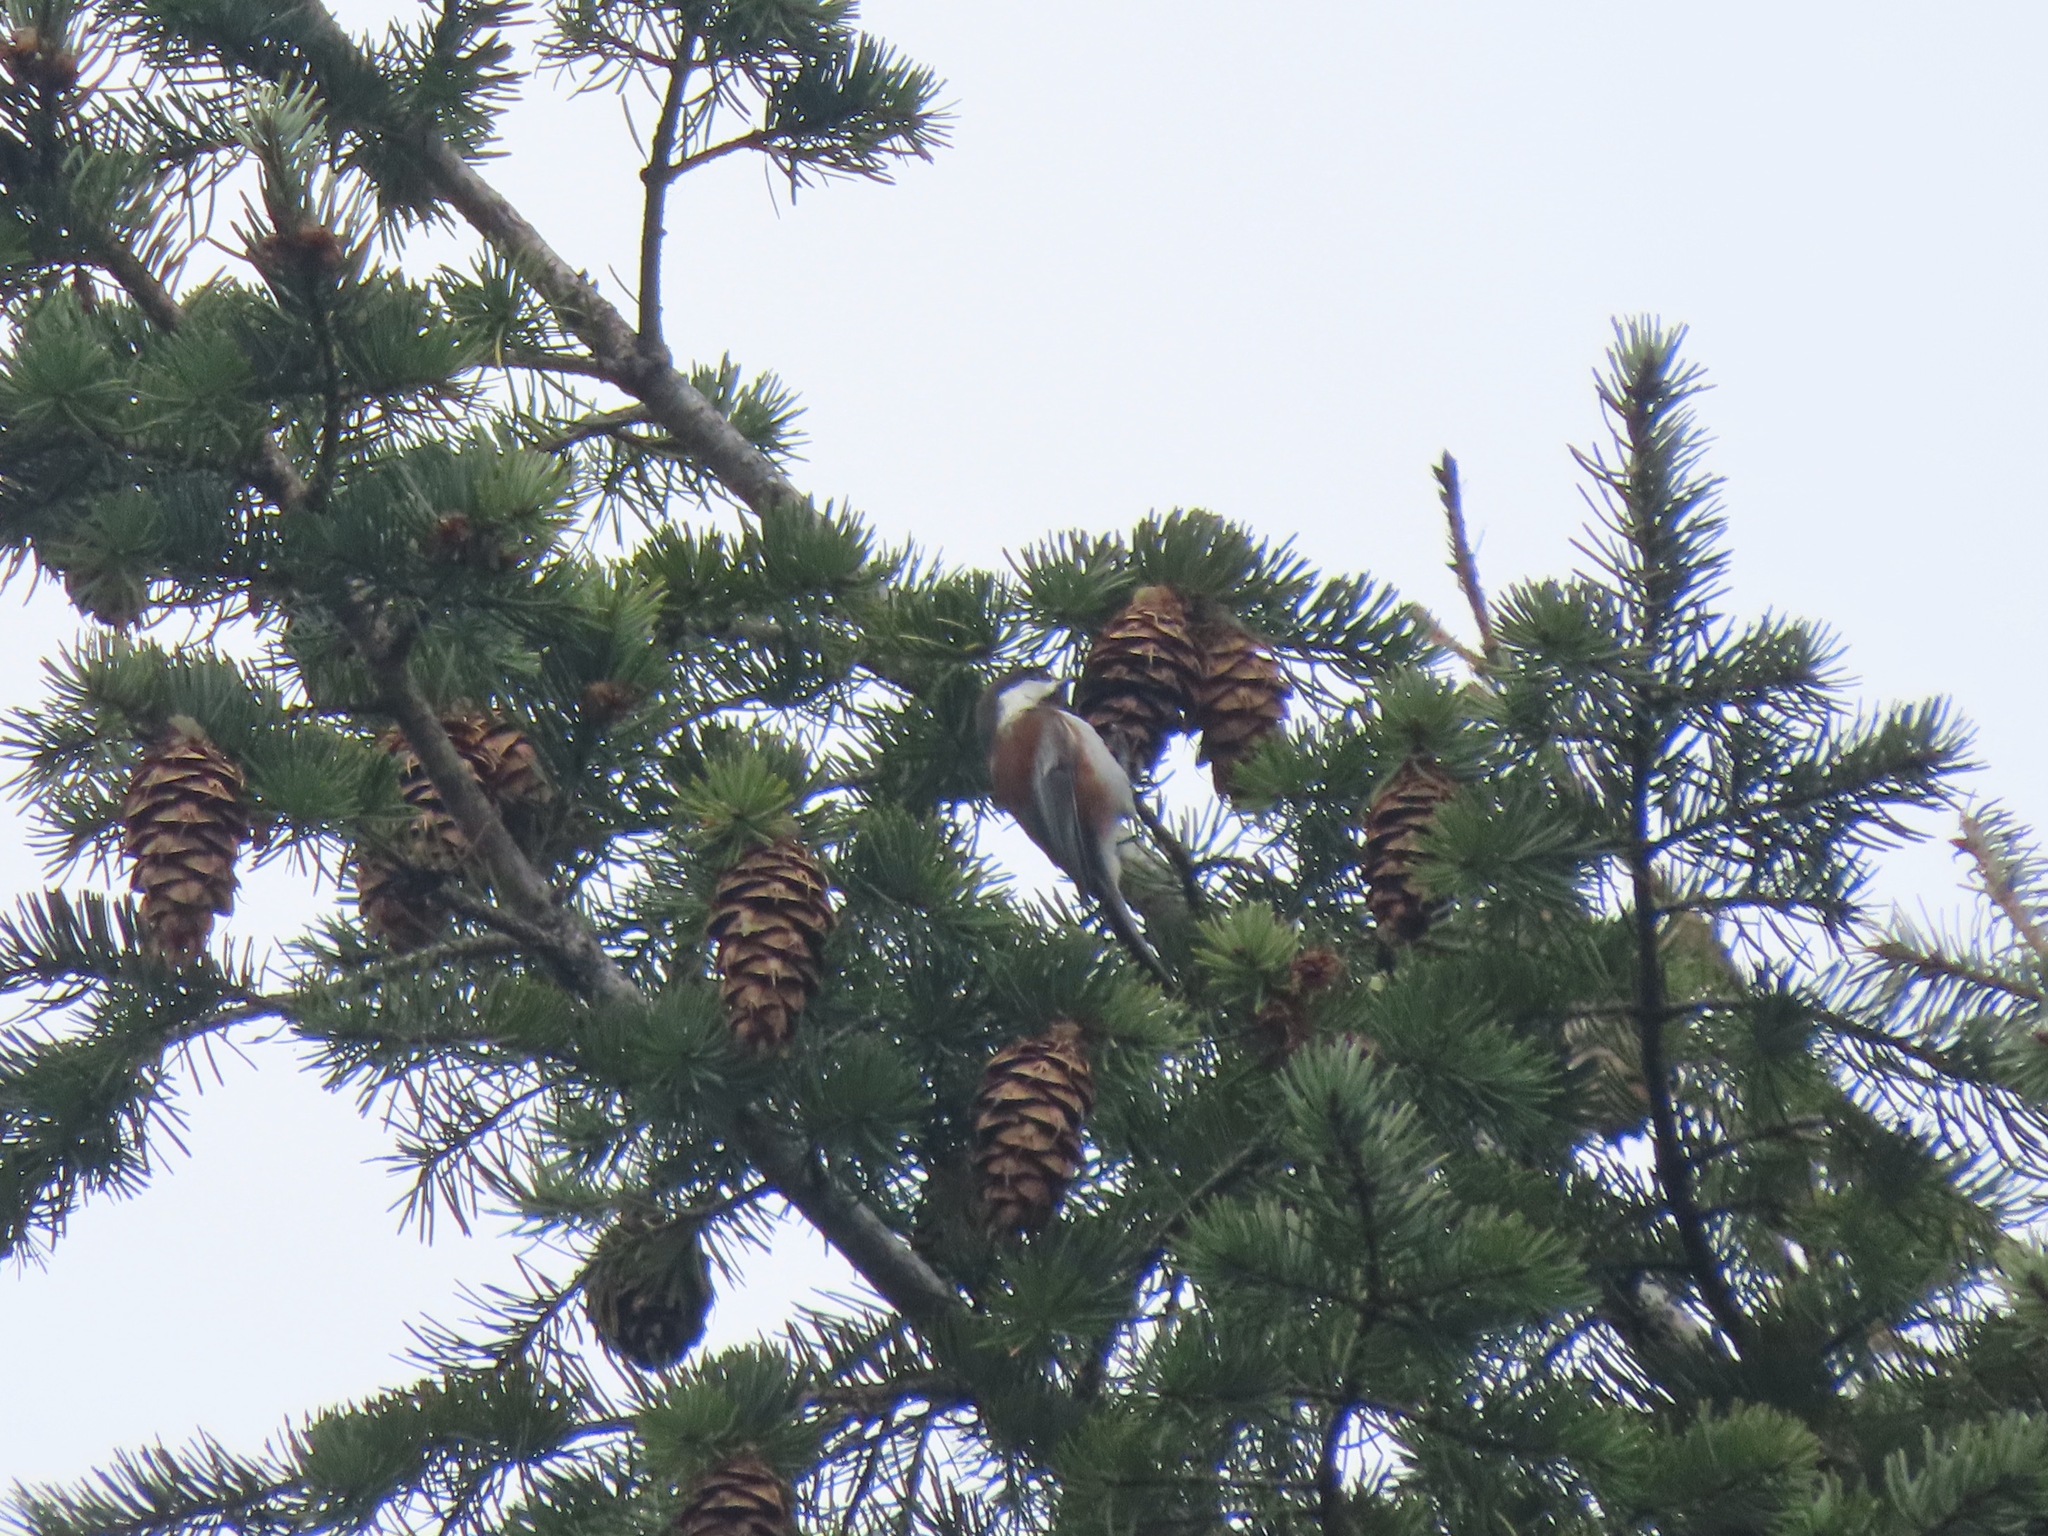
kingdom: Animalia
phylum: Chordata
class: Aves
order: Passeriformes
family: Paridae
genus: Poecile
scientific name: Poecile rufescens
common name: Chestnut-backed chickadee
